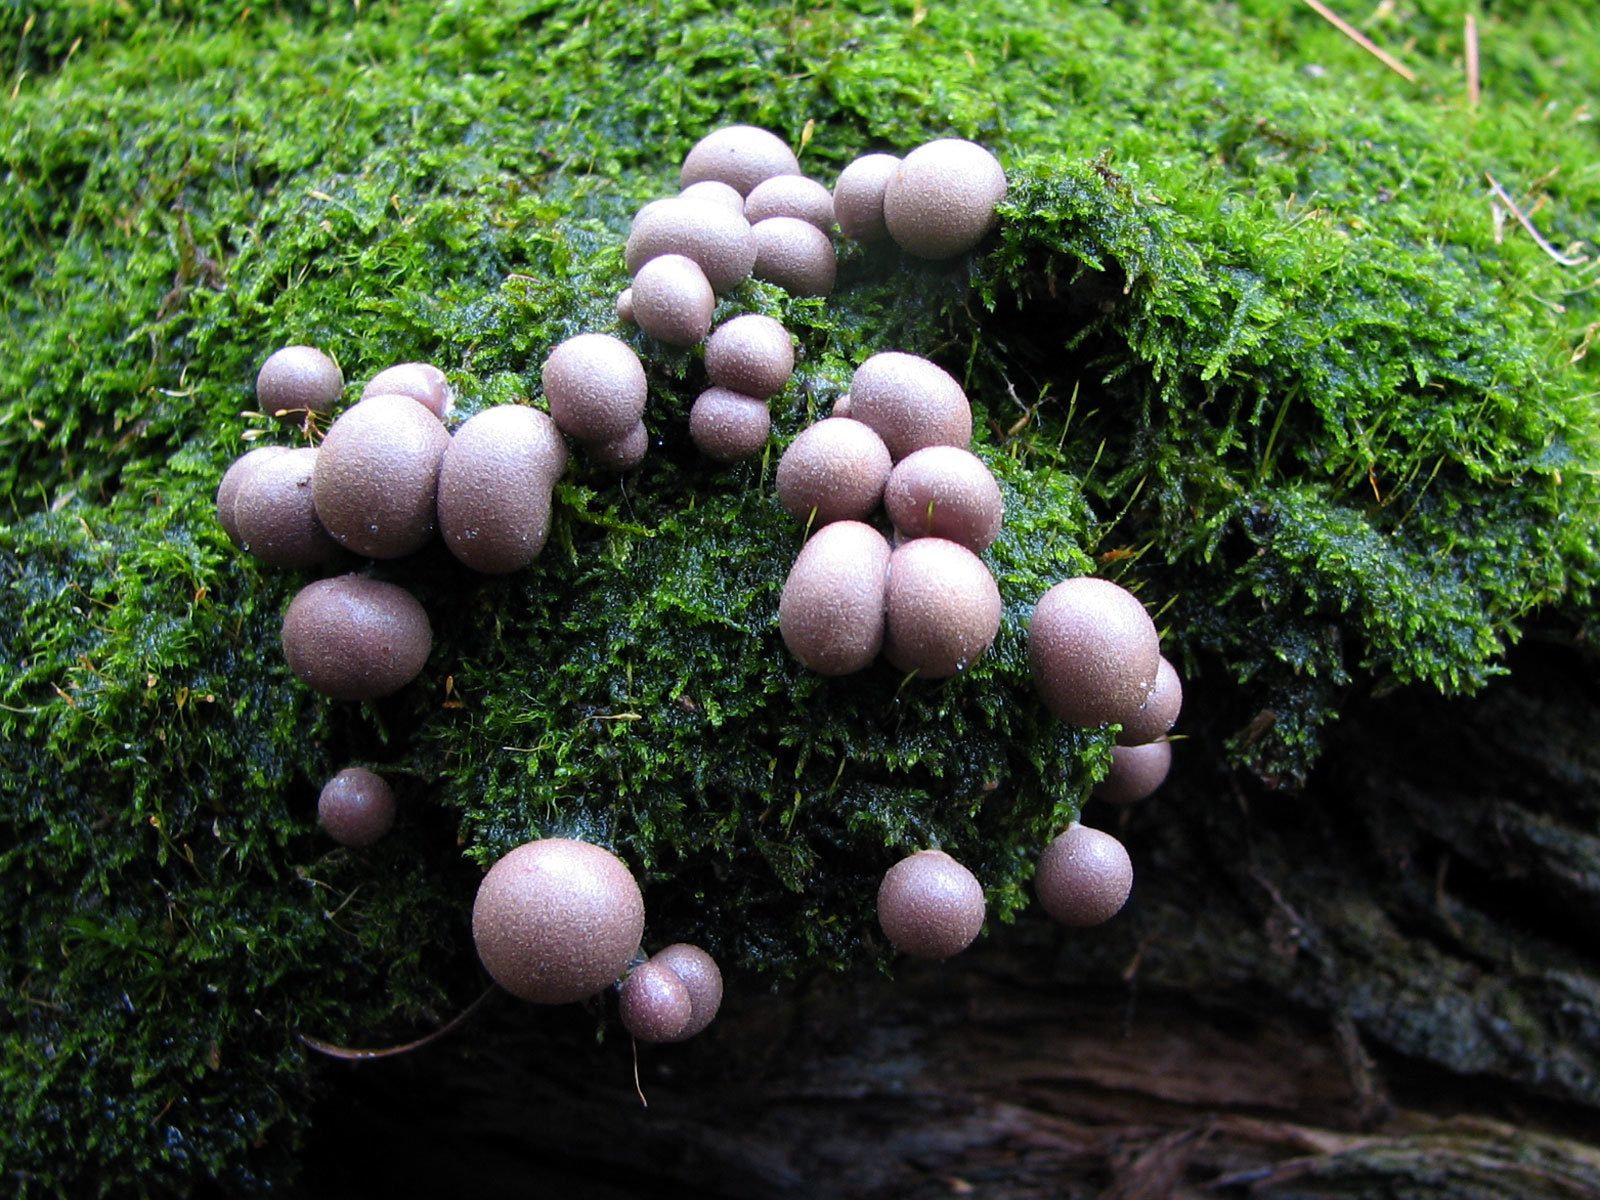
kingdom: Protozoa
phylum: Mycetozoa
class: Myxomycetes
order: Cribrariales
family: Tubiferaceae
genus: Lycogala
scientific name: Lycogala epidendrum
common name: Wolf's milk
